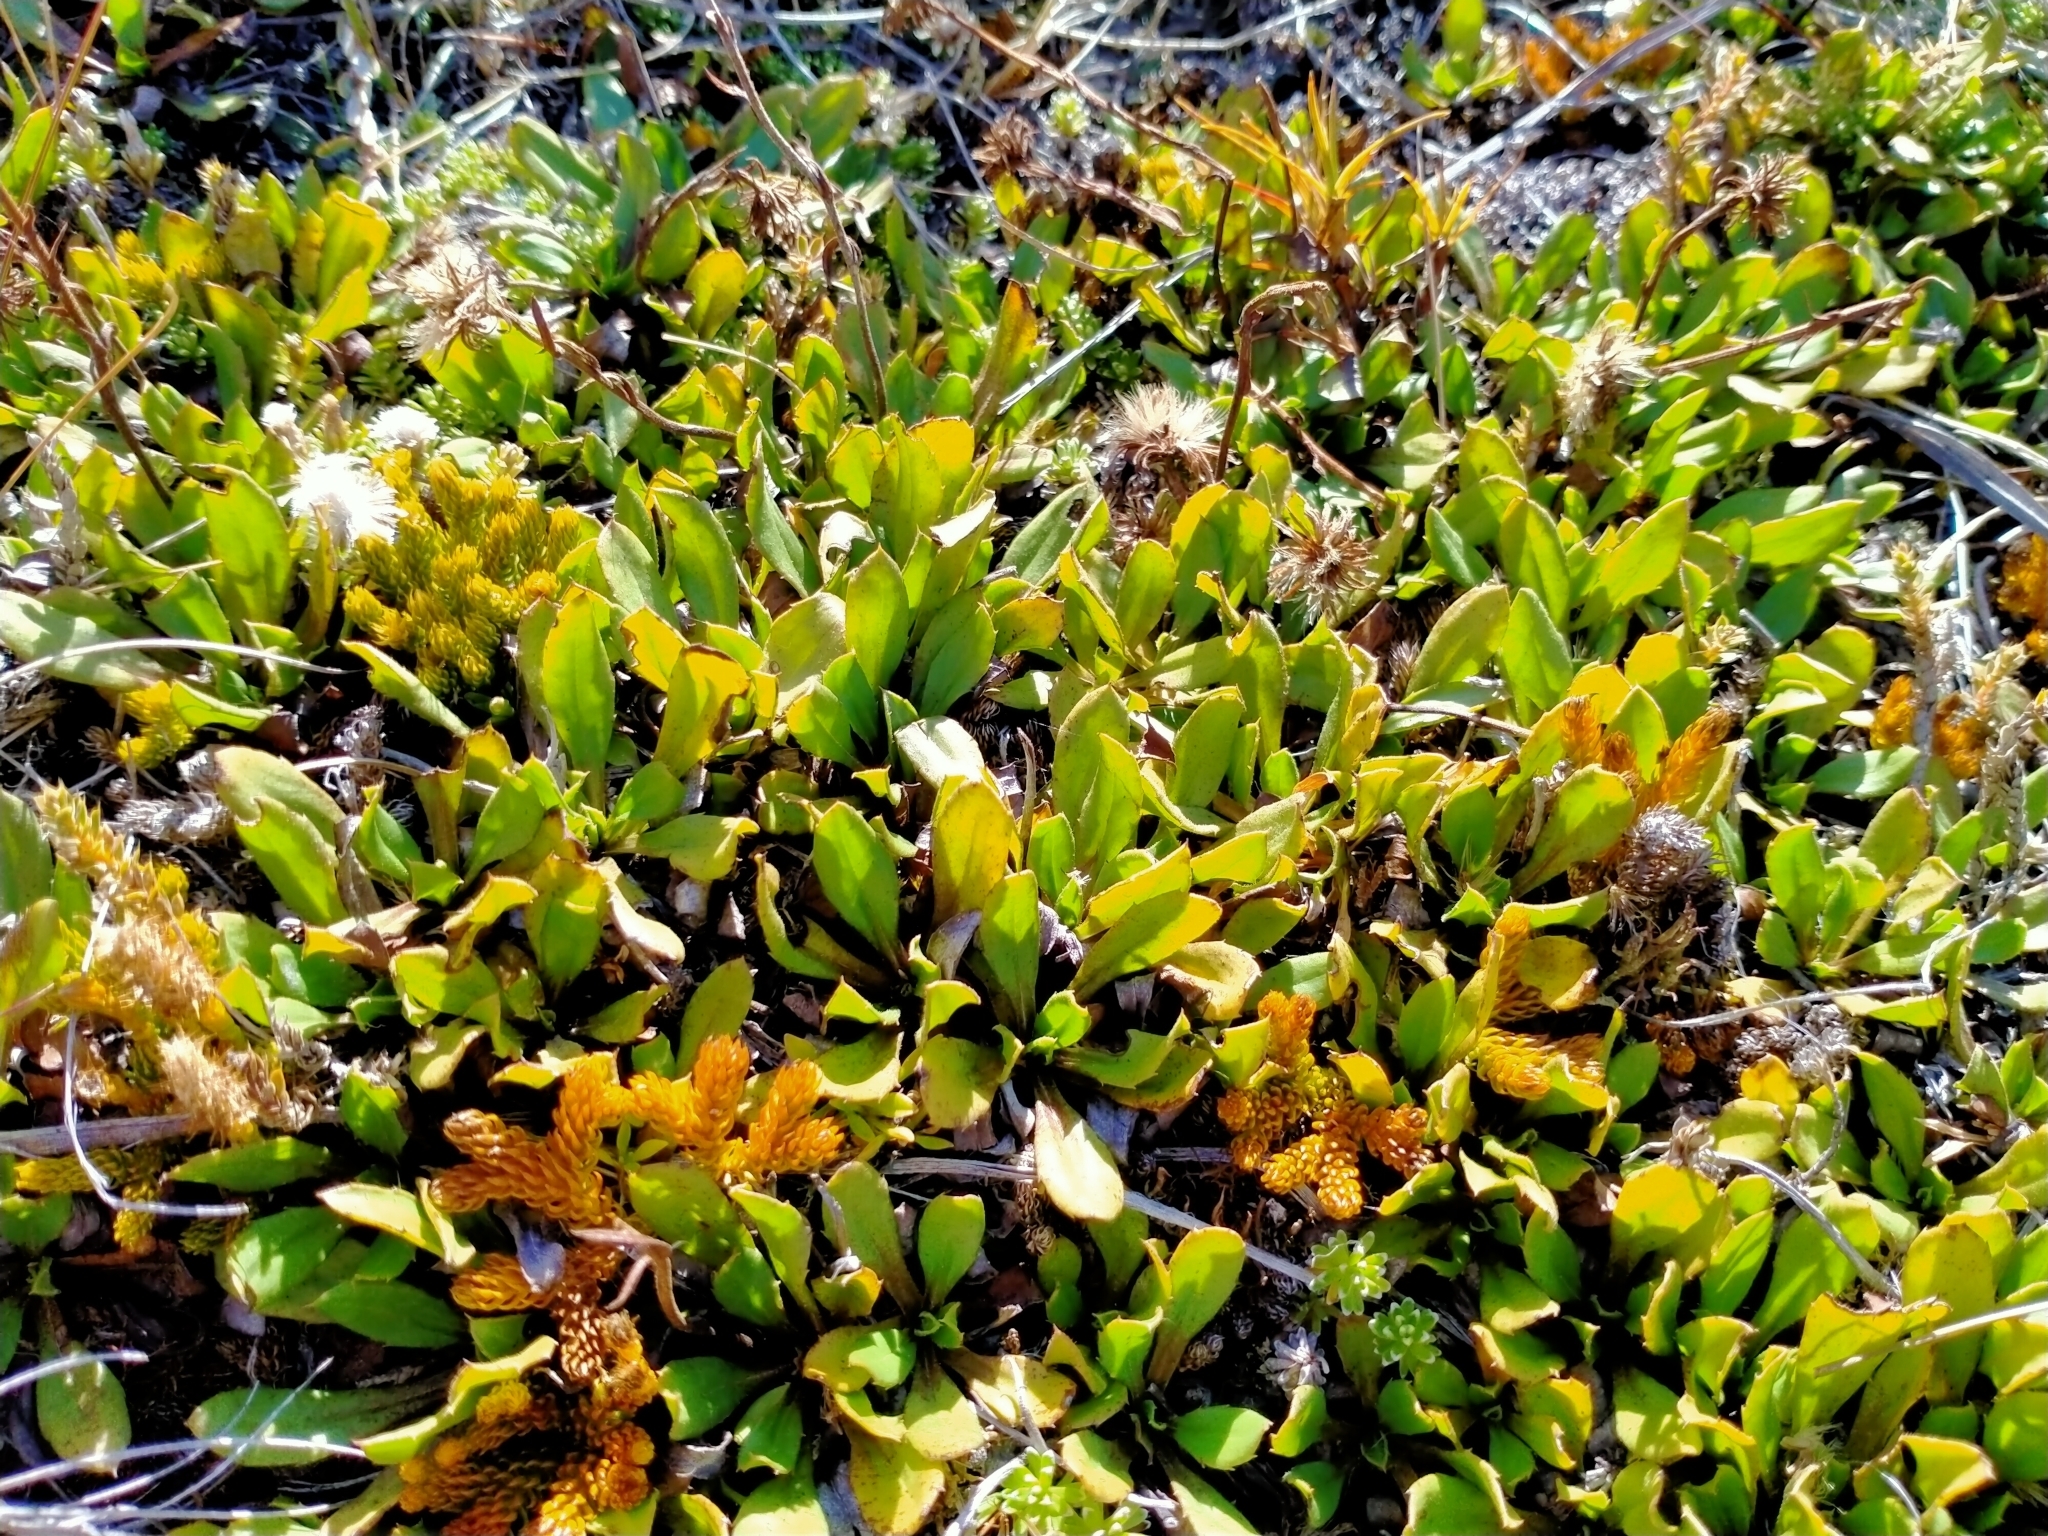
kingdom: Plantae
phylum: Tracheophyta
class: Magnoliopsida
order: Asterales
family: Asteraceae
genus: Celmisia
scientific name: Celmisia glandulosa
